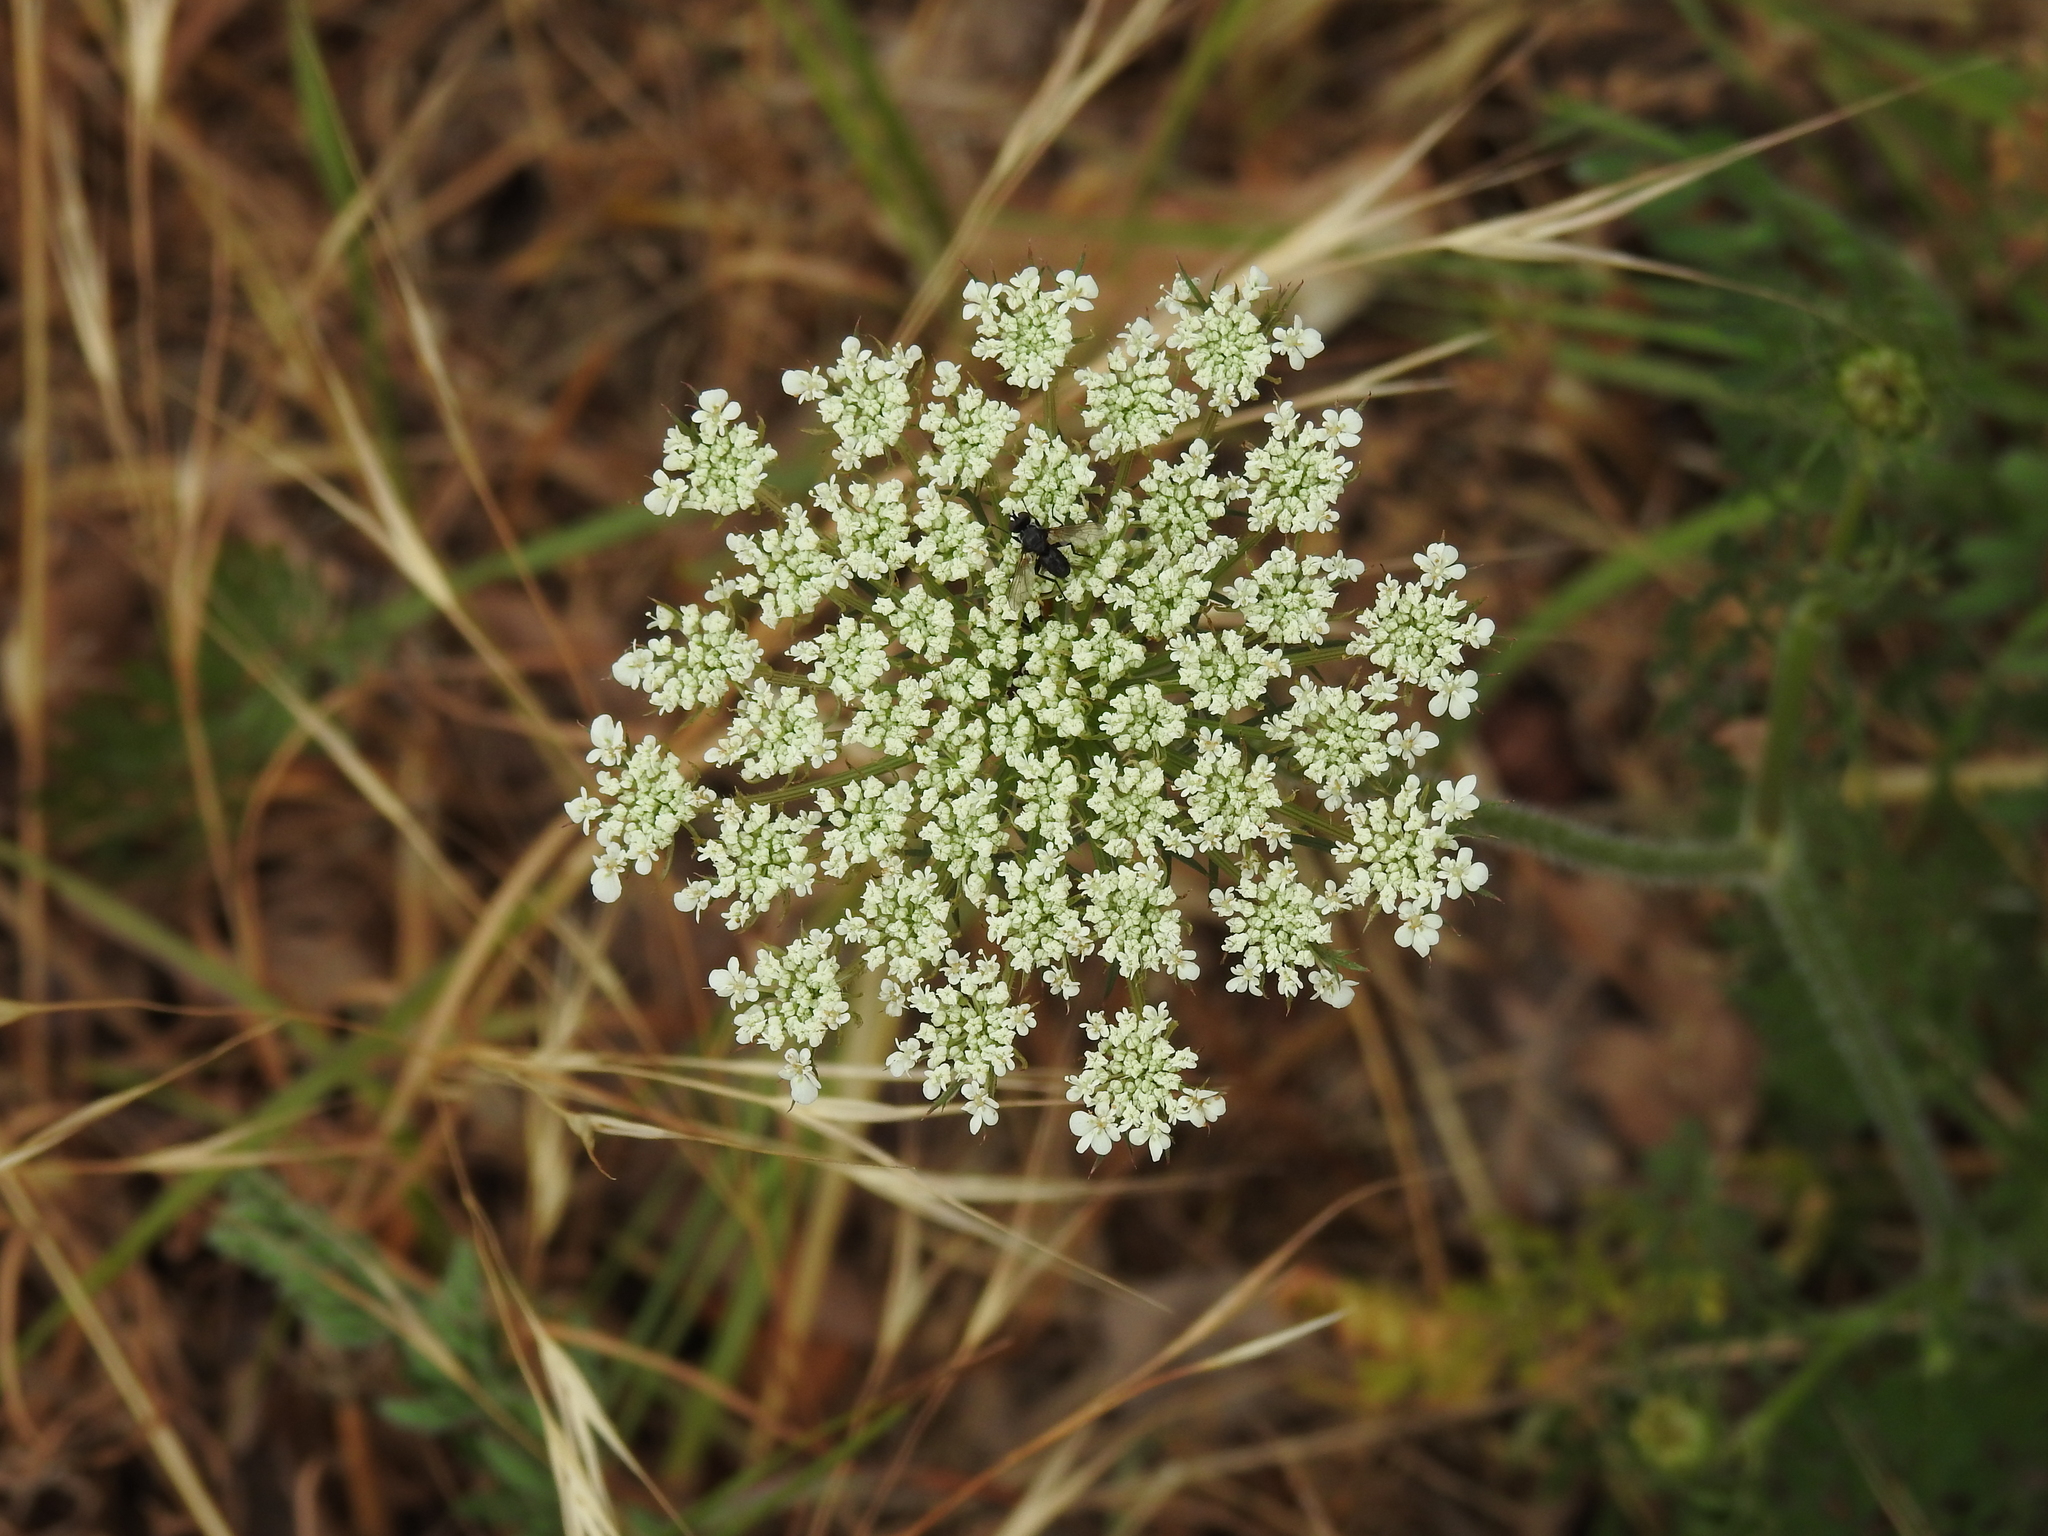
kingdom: Plantae
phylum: Tracheophyta
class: Magnoliopsida
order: Apiales
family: Apiaceae
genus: Daucus
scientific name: Daucus carota
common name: Wild carrot
